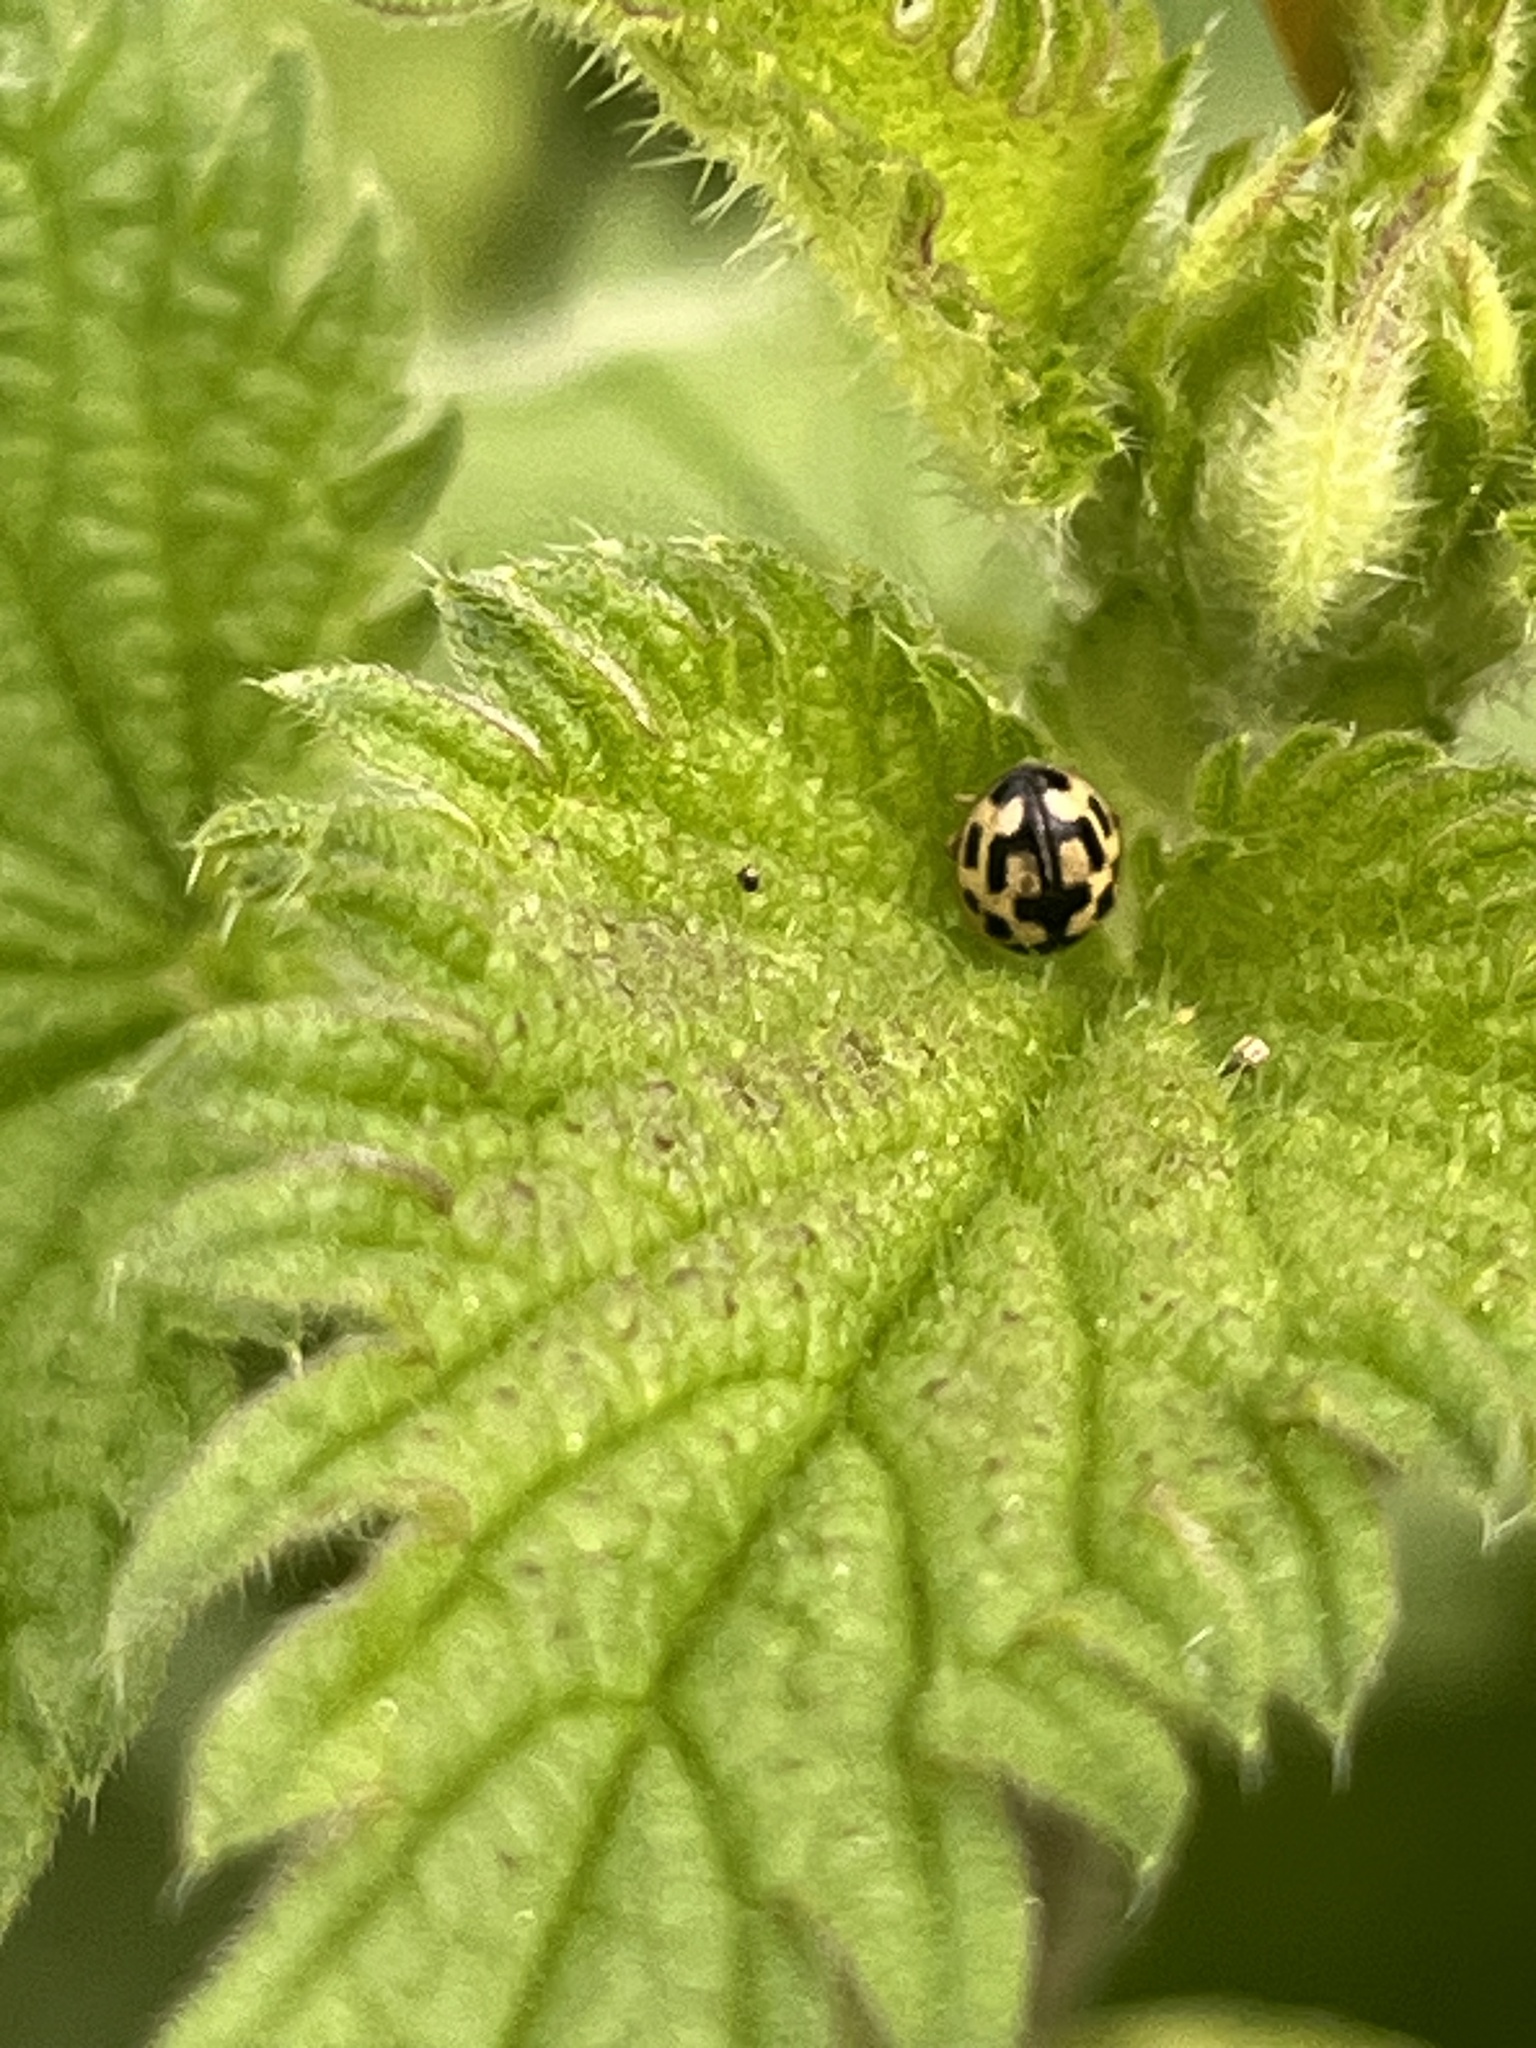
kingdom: Animalia
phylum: Arthropoda
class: Insecta
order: Coleoptera
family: Coccinellidae
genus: Propylaea
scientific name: Propylaea quatuordecimpunctata
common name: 14-spotted ladybird beetle
